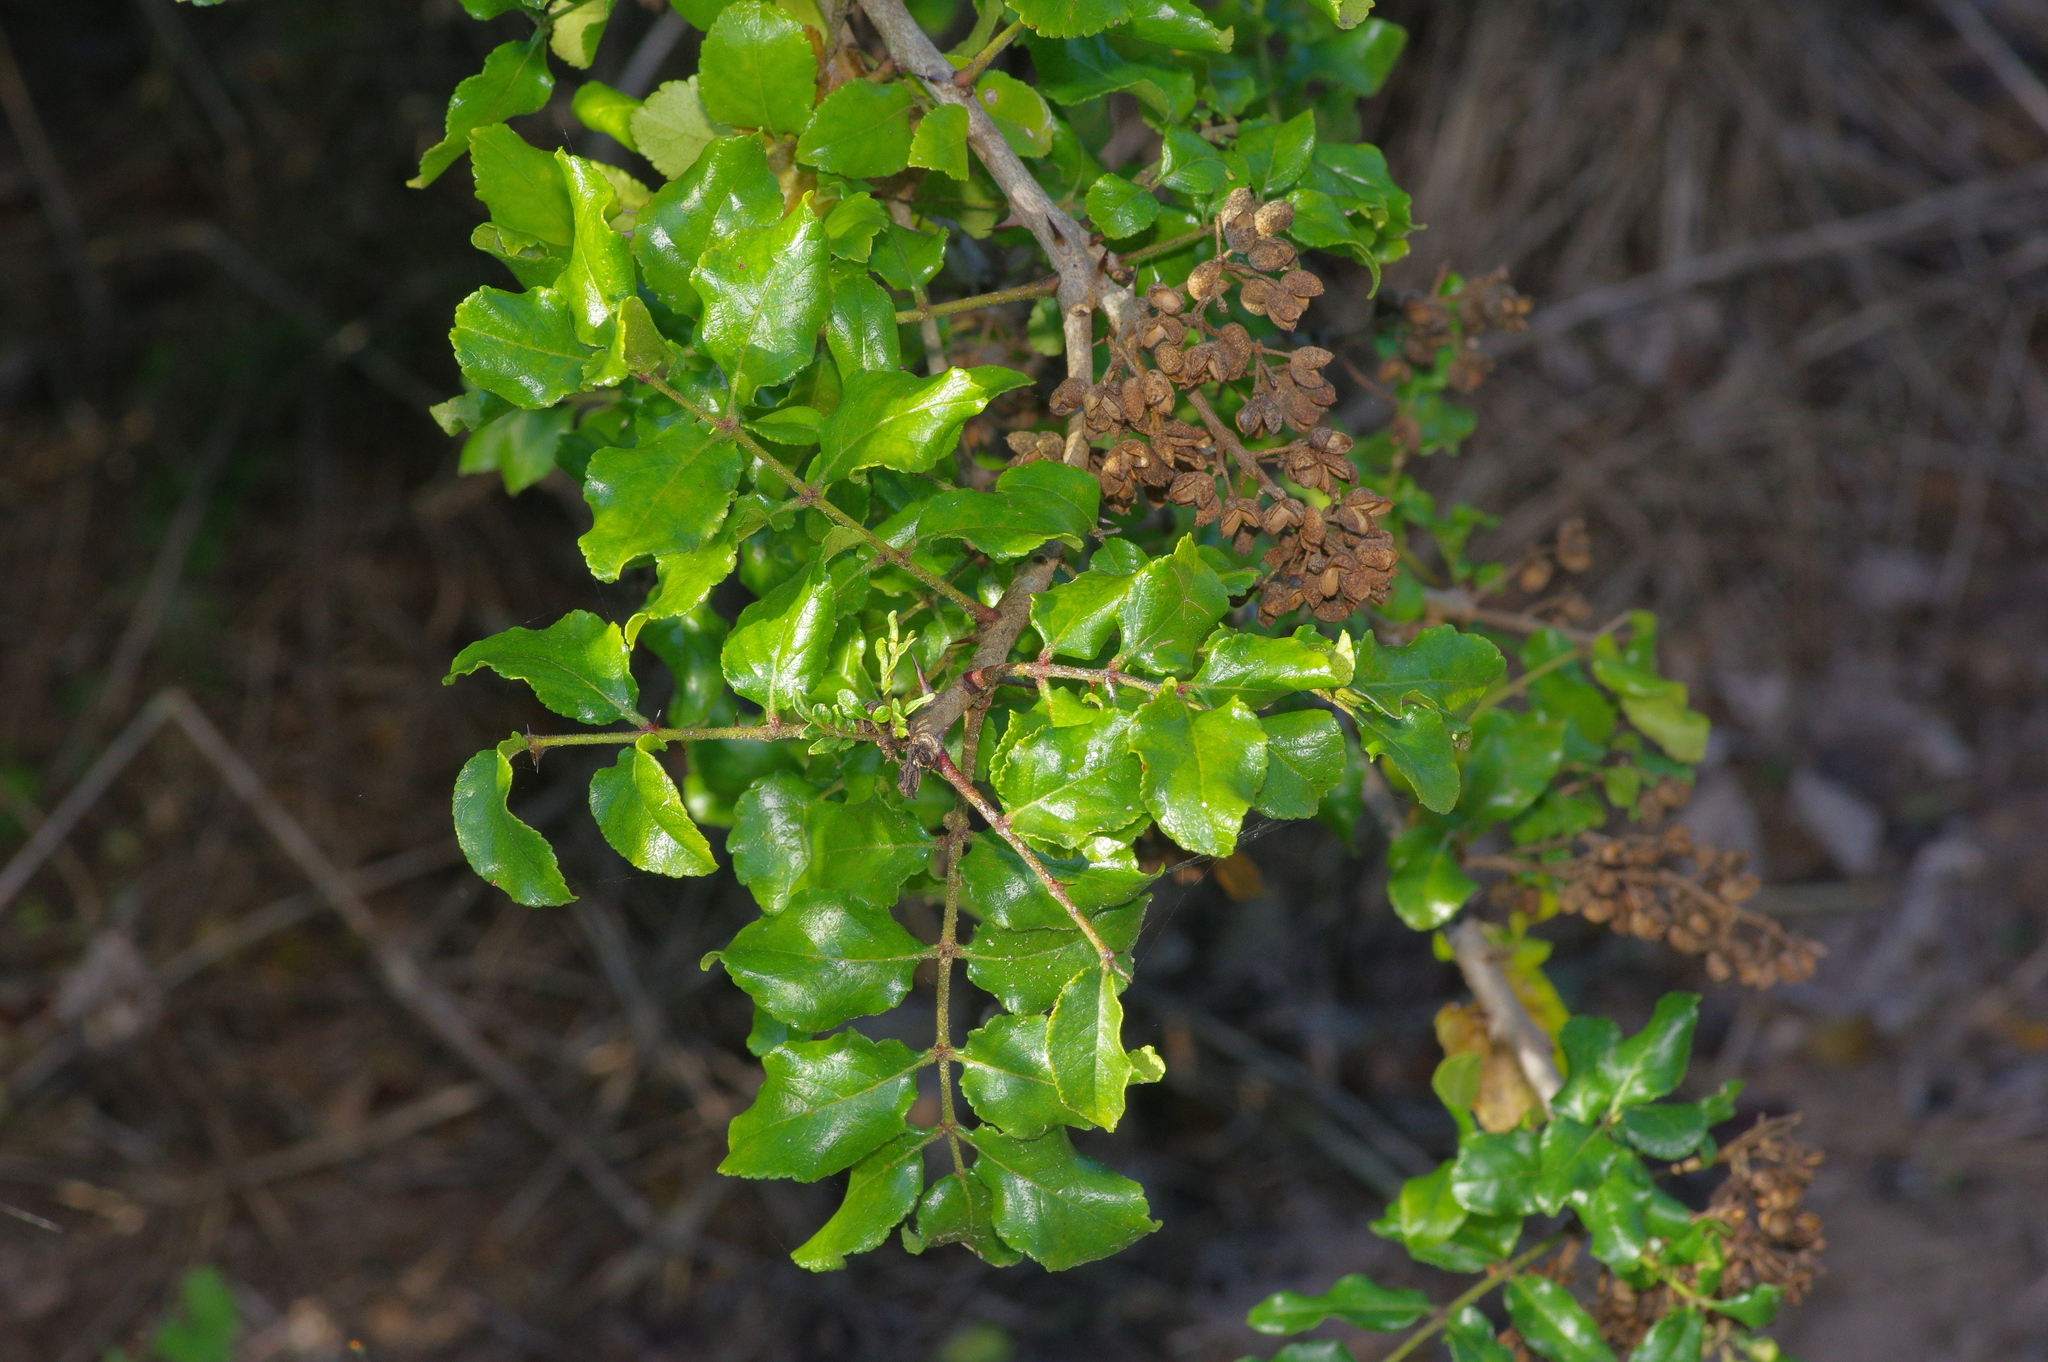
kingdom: Plantae
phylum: Tracheophyta
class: Magnoliopsida
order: Sapindales
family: Rutaceae
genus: Zanthoxylum
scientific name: Zanthoxylum clava-herculis
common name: Hercules'-club
